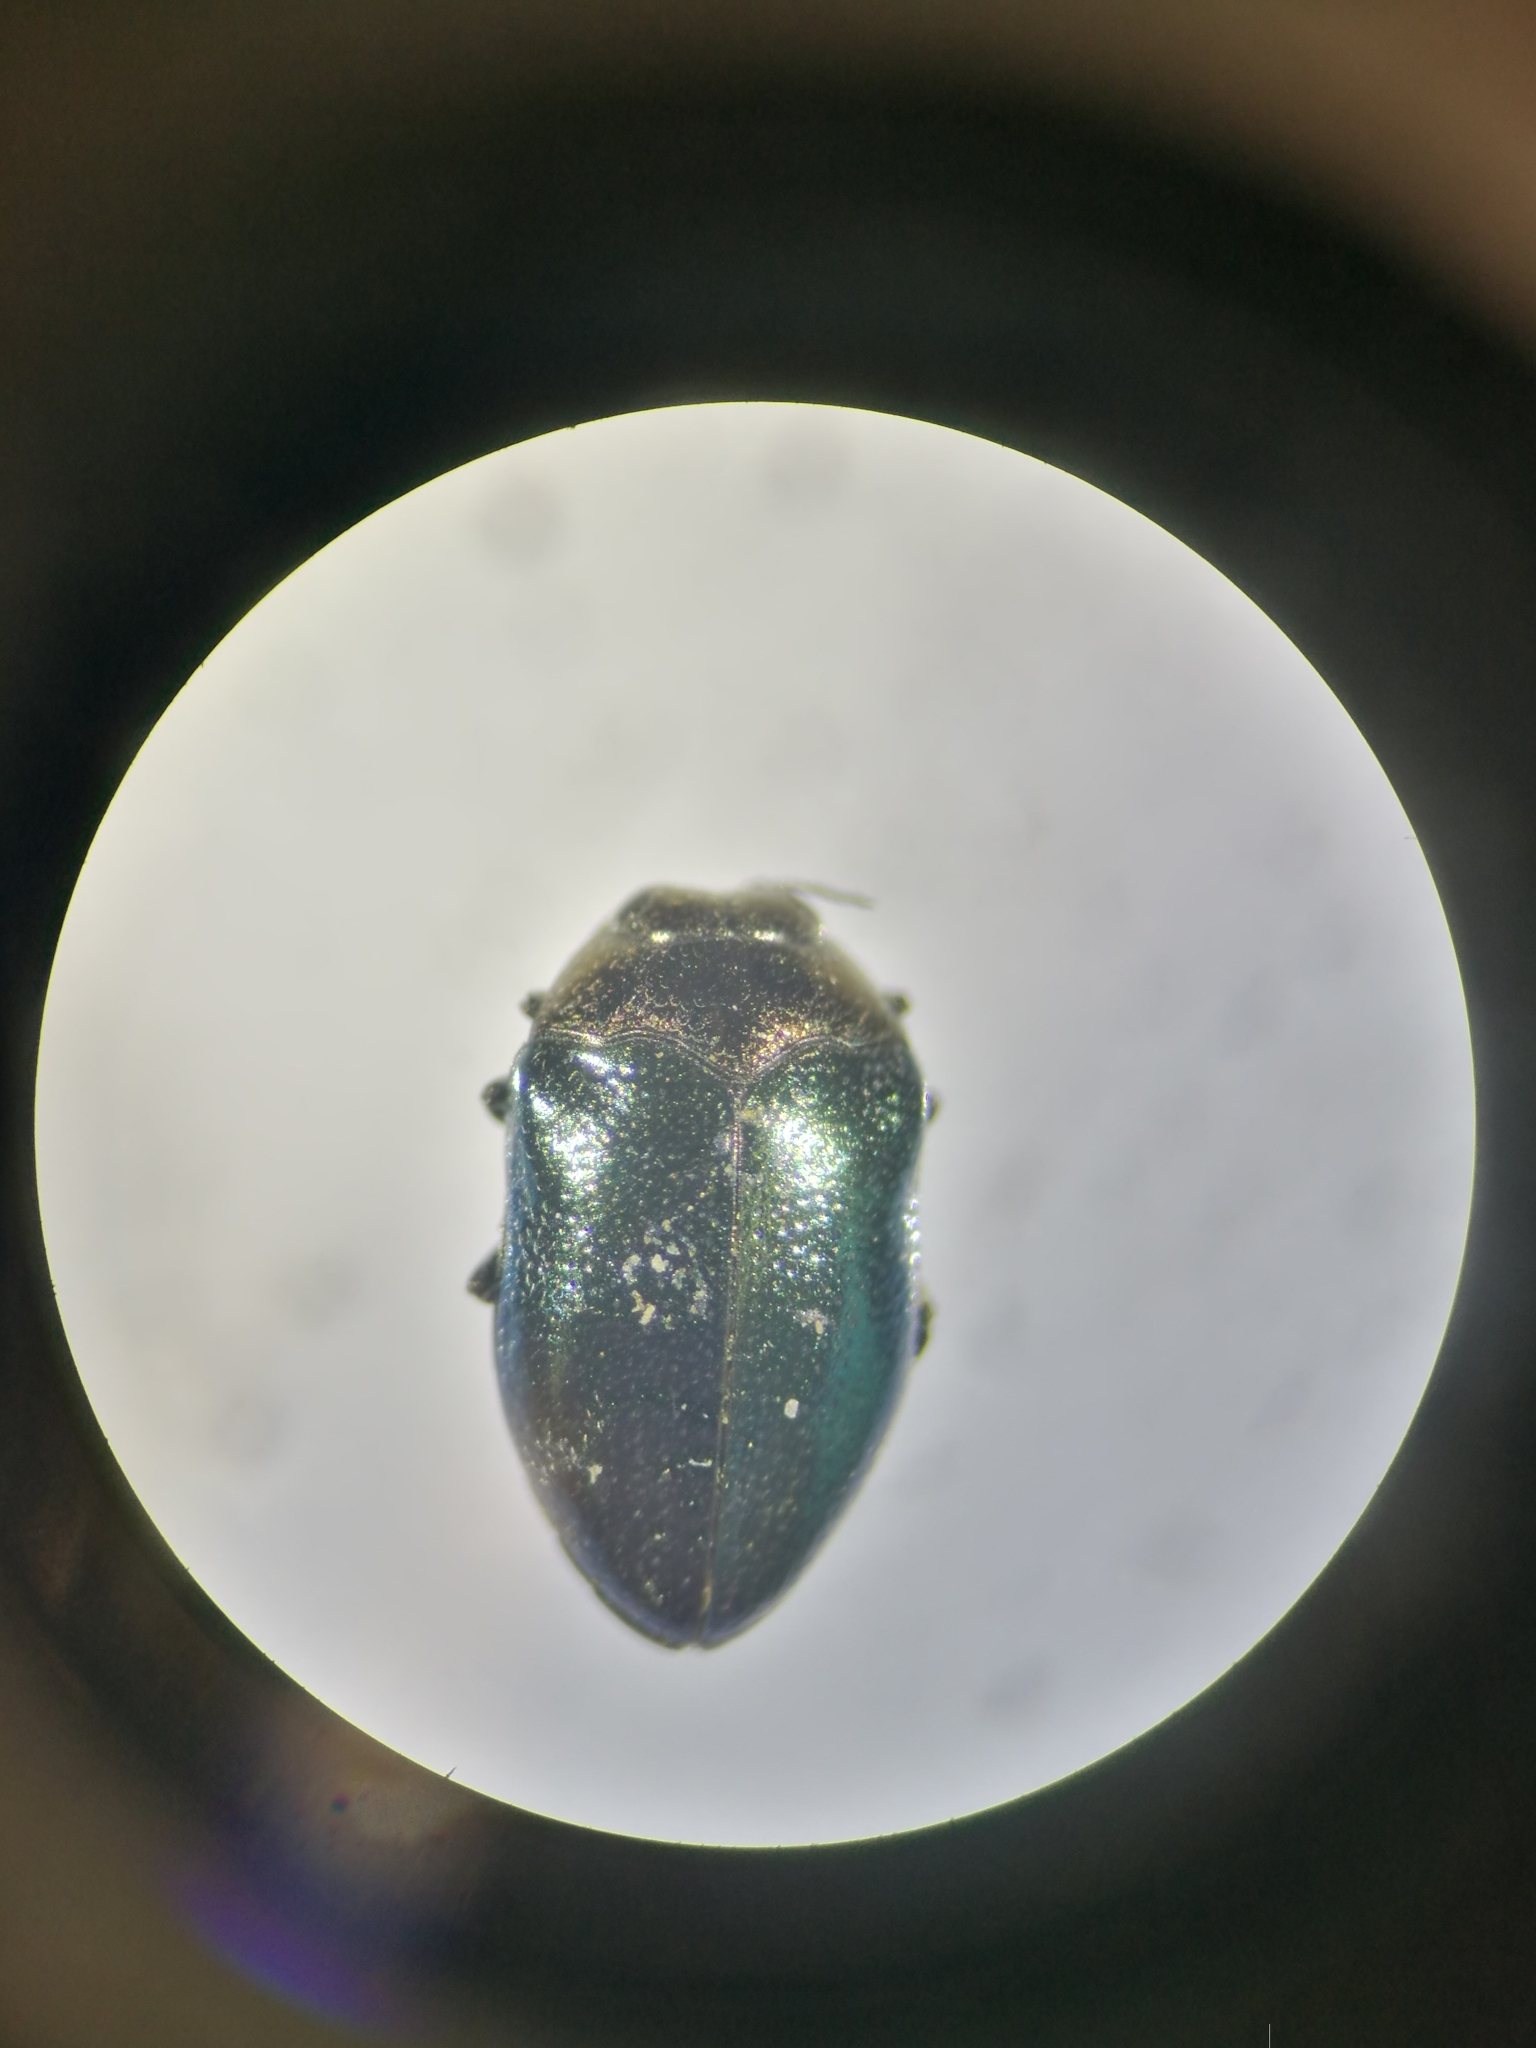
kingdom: Animalia
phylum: Arthropoda
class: Insecta
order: Coleoptera
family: Buprestidae
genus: Trachys
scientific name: Trachys troglodytiformis
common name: Metallic wood-boring beetle
